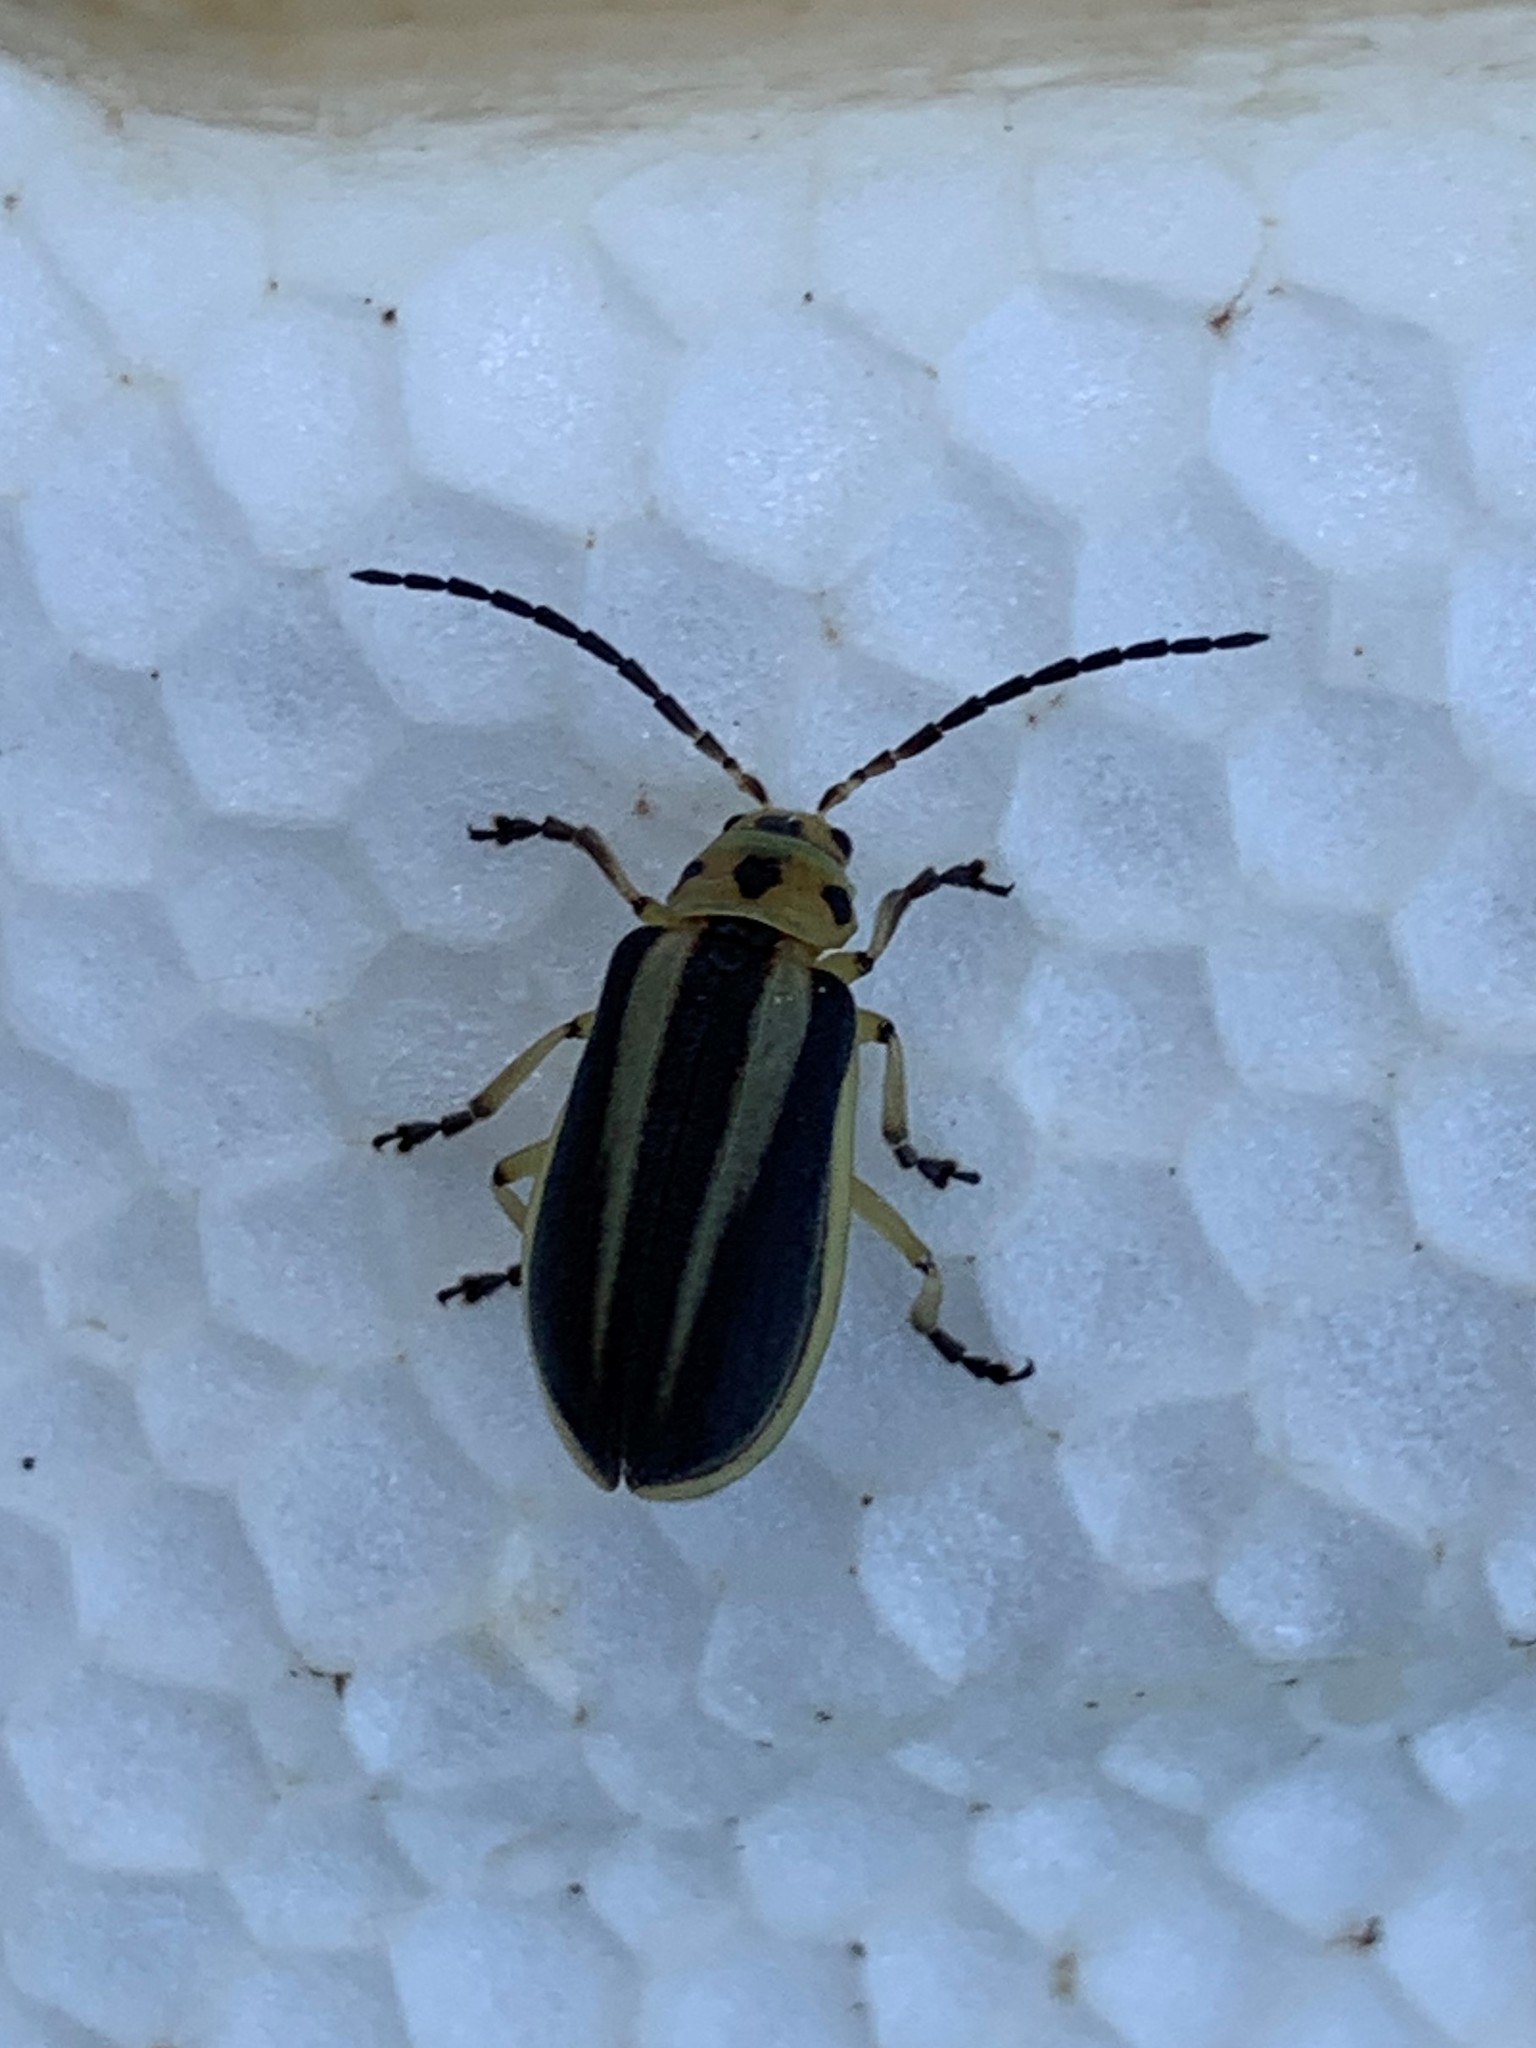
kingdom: Animalia
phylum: Arthropoda
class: Insecta
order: Coleoptera
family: Chrysomelidae
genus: Trirhabda
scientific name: Trirhabda bacharidis
